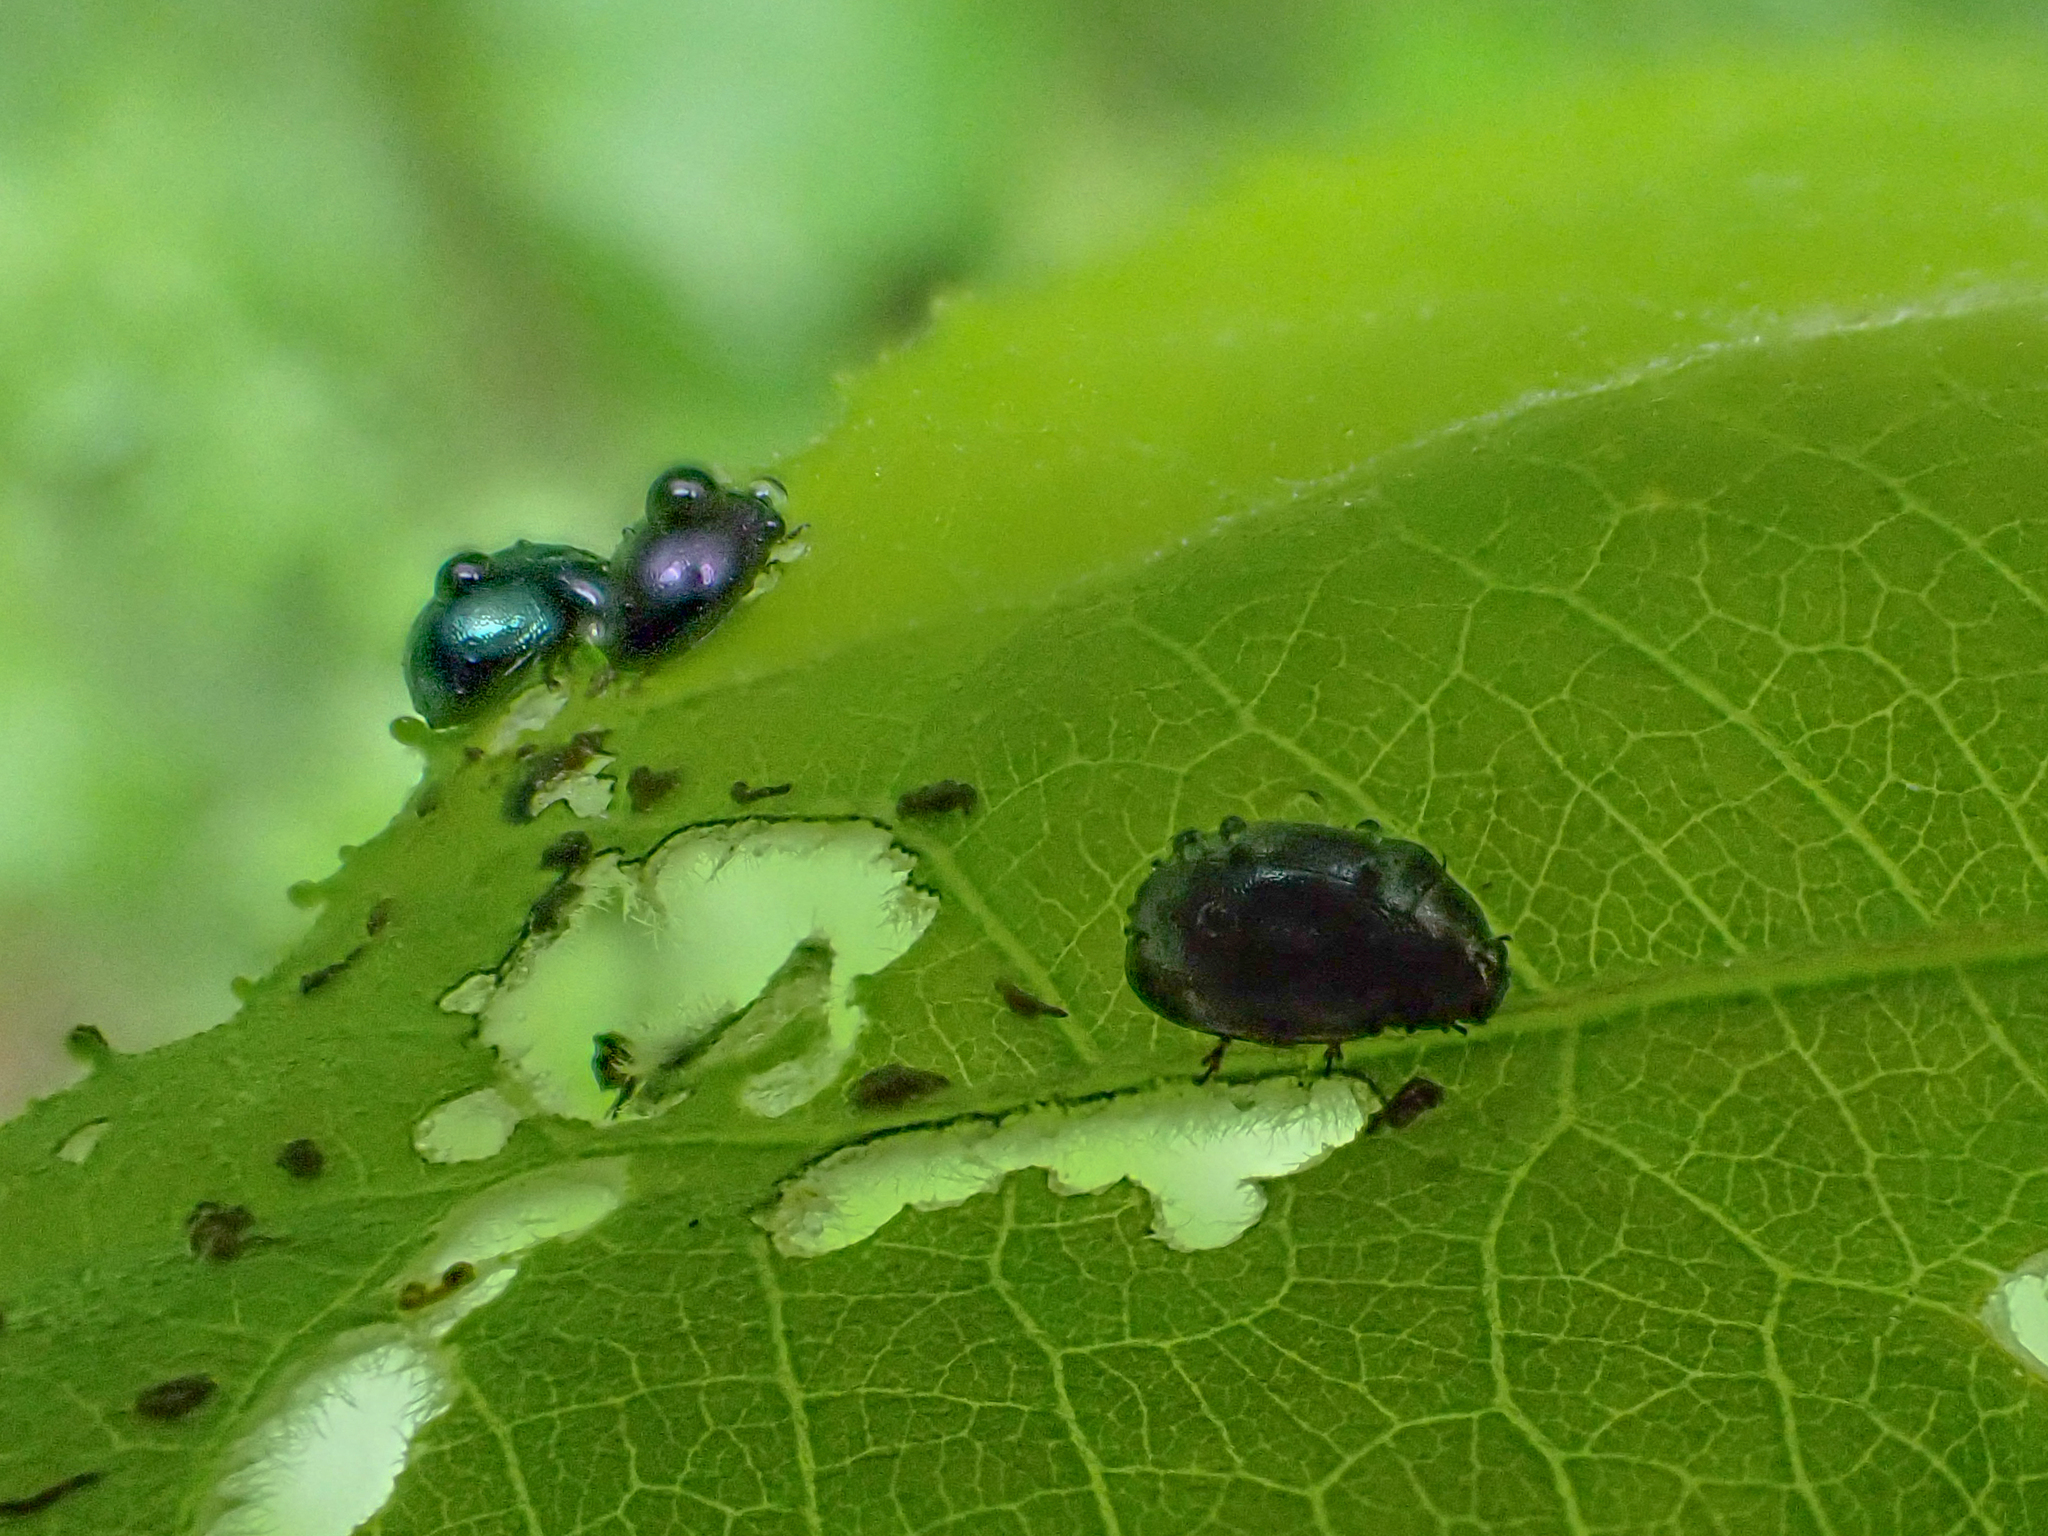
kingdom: Animalia
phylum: Arthropoda
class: Insecta
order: Coleoptera
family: Chrysomelidae
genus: Plagiodera
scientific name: Plagiodera versicolora
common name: Imported willow leaf beetle
